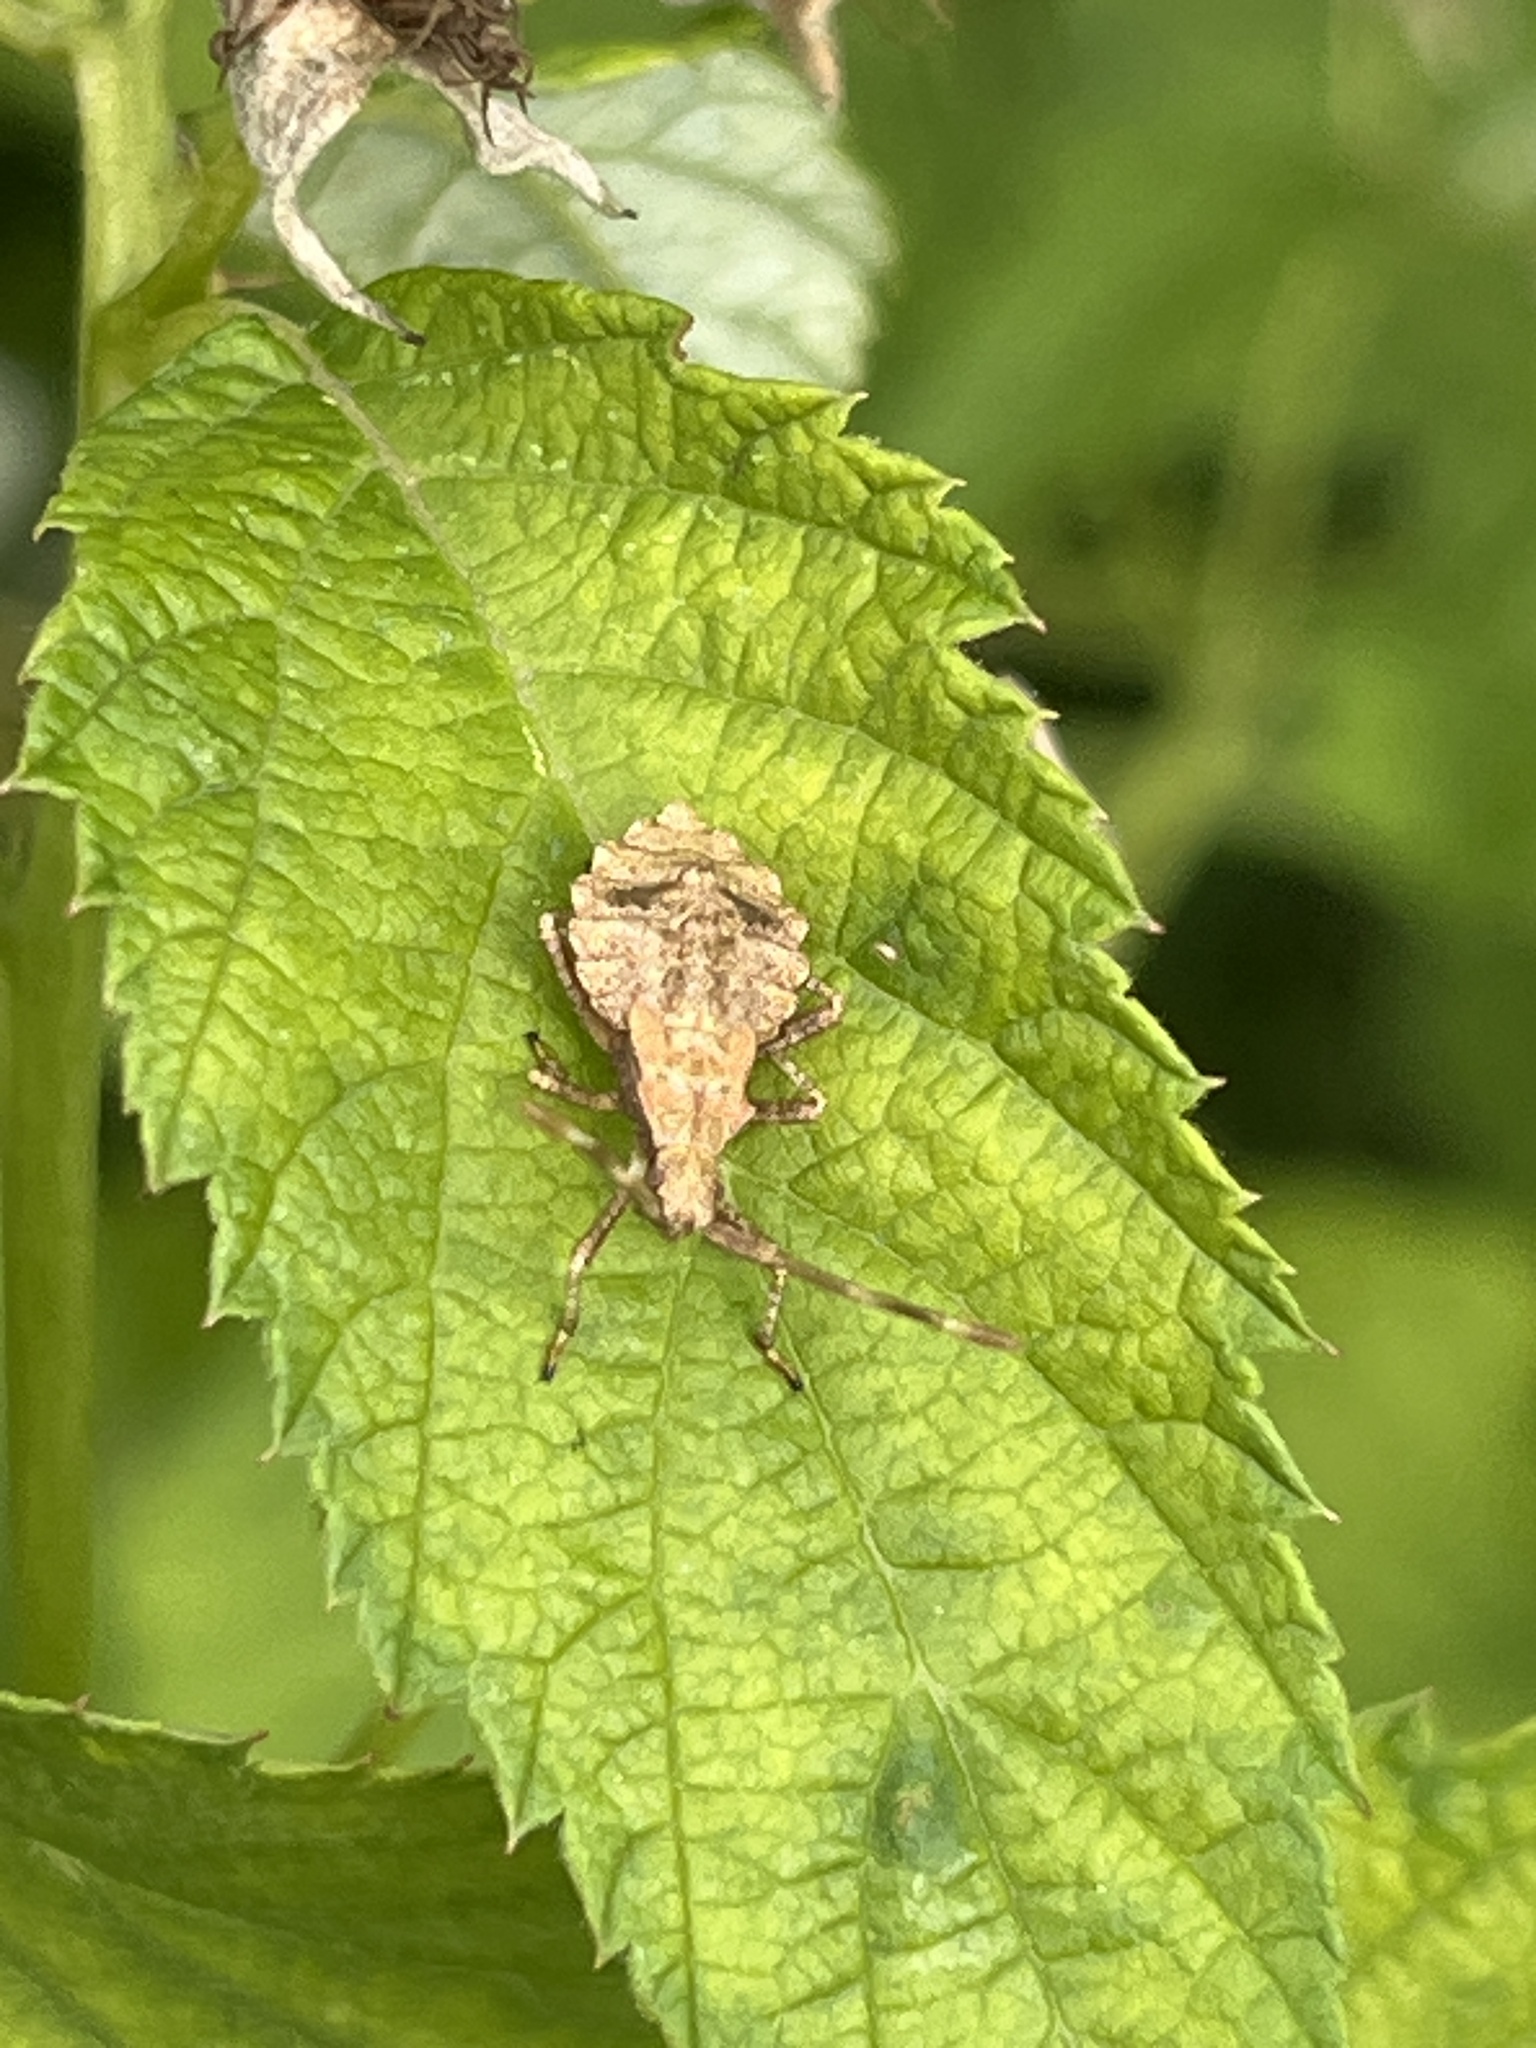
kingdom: Animalia
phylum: Arthropoda
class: Insecta
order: Hemiptera
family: Coreidae
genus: Coreus
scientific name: Coreus marginatus
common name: Dock bug
